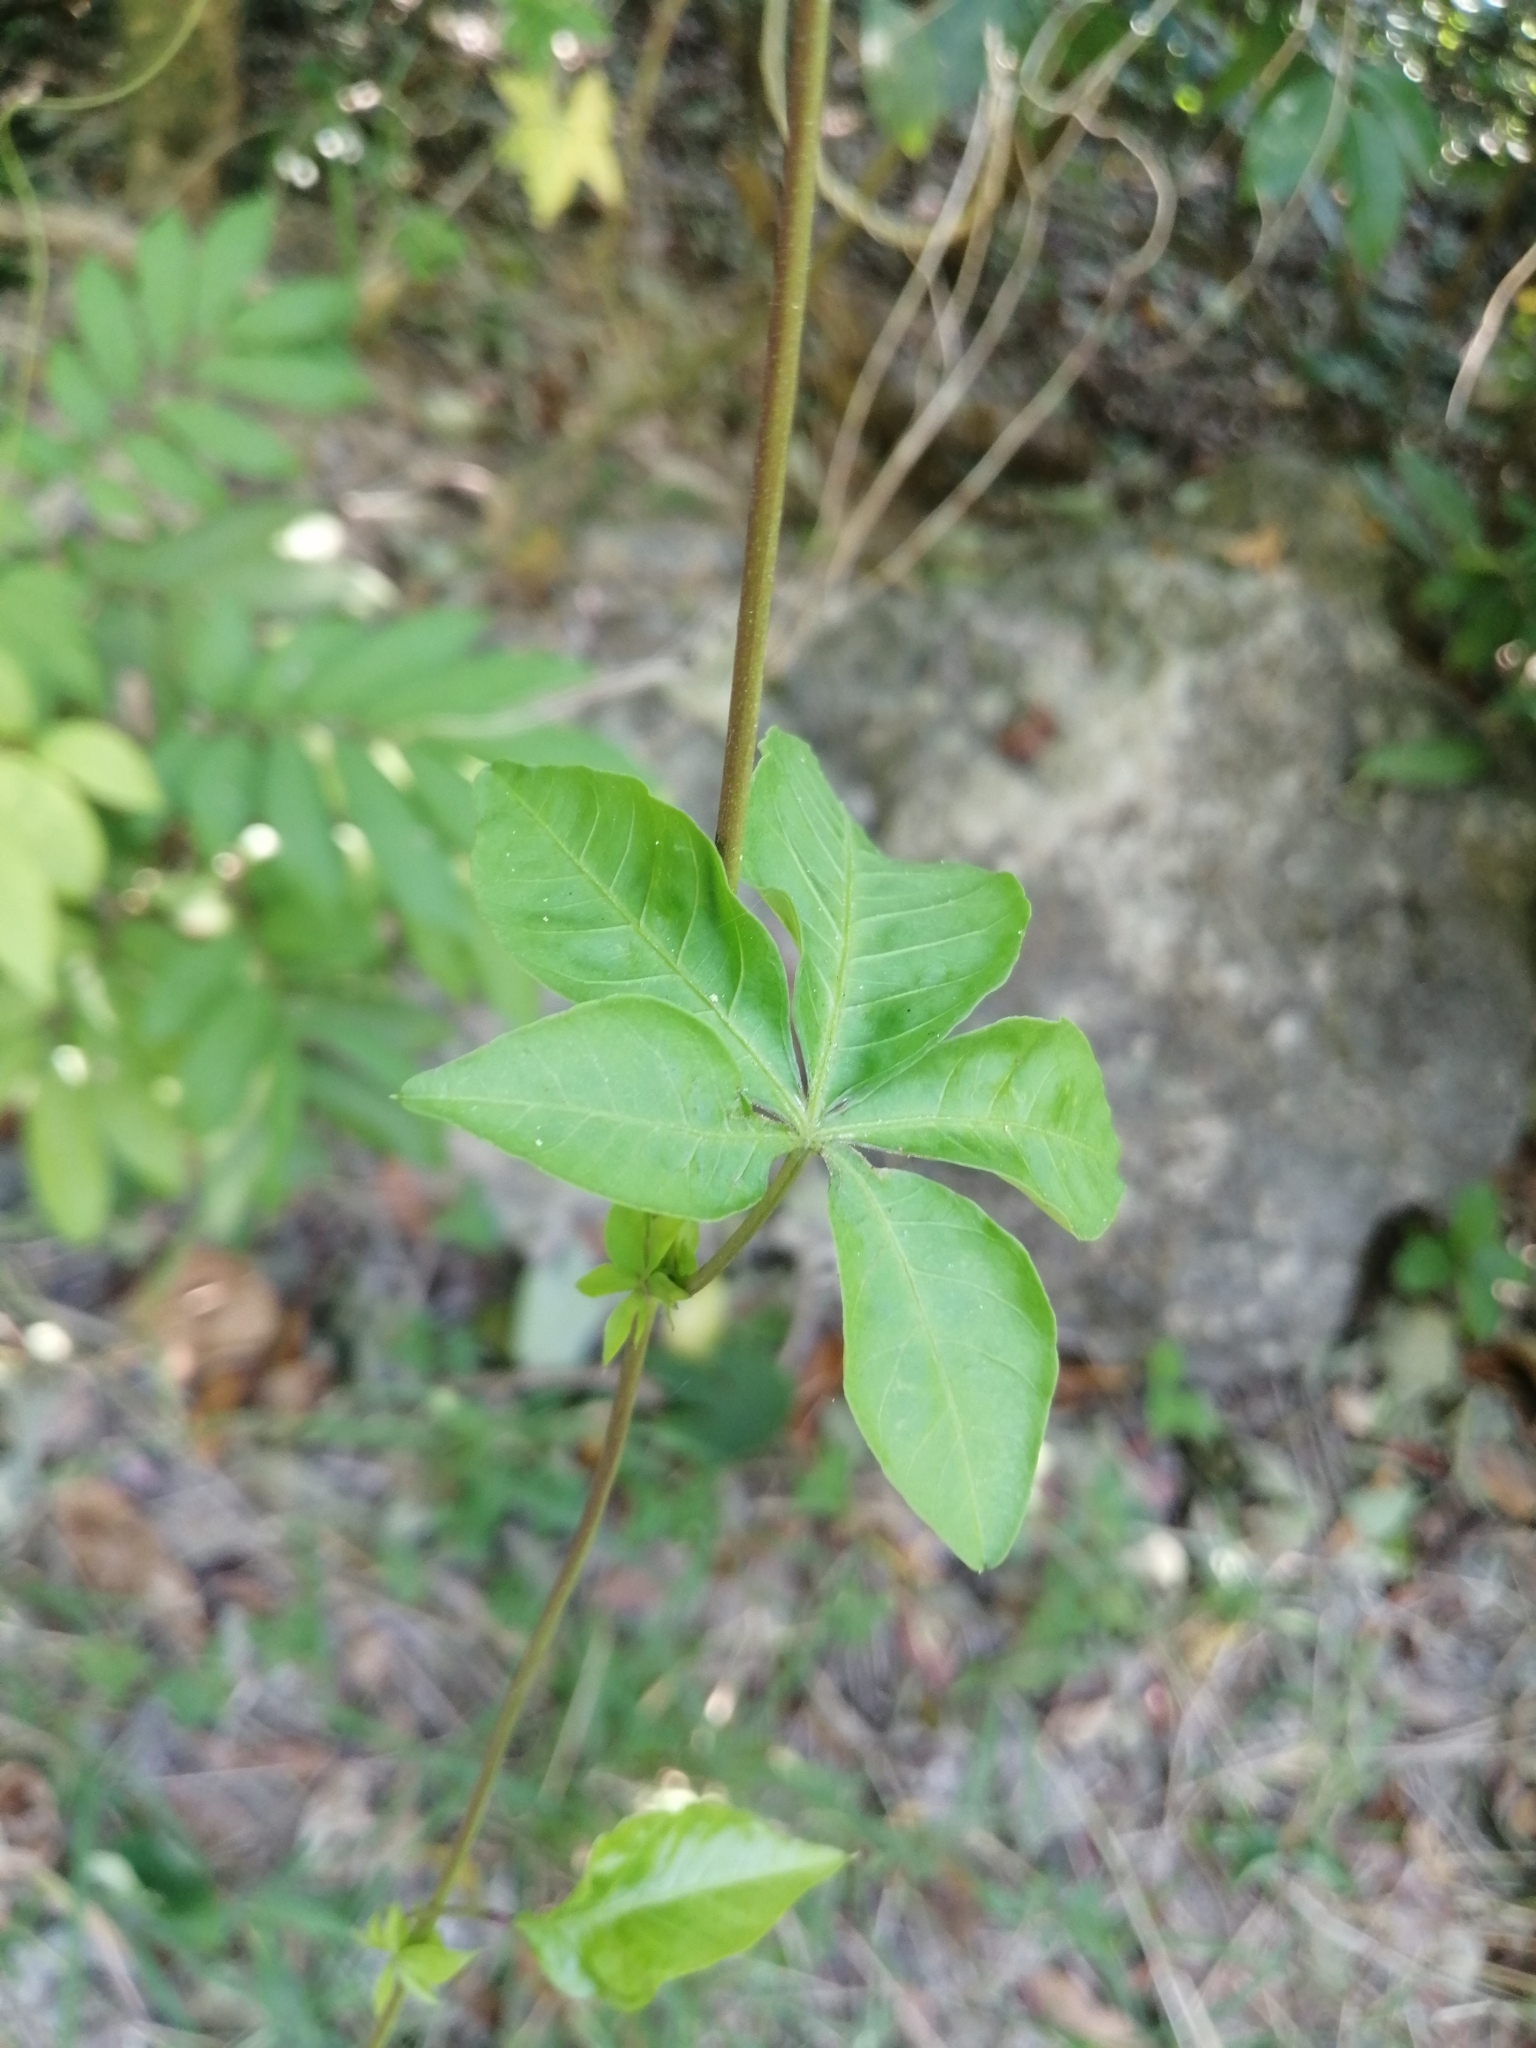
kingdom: Plantae
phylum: Tracheophyta
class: Magnoliopsida
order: Solanales
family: Convolvulaceae
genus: Ipomoea
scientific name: Ipomoea cairica
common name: Mile a minute vine
